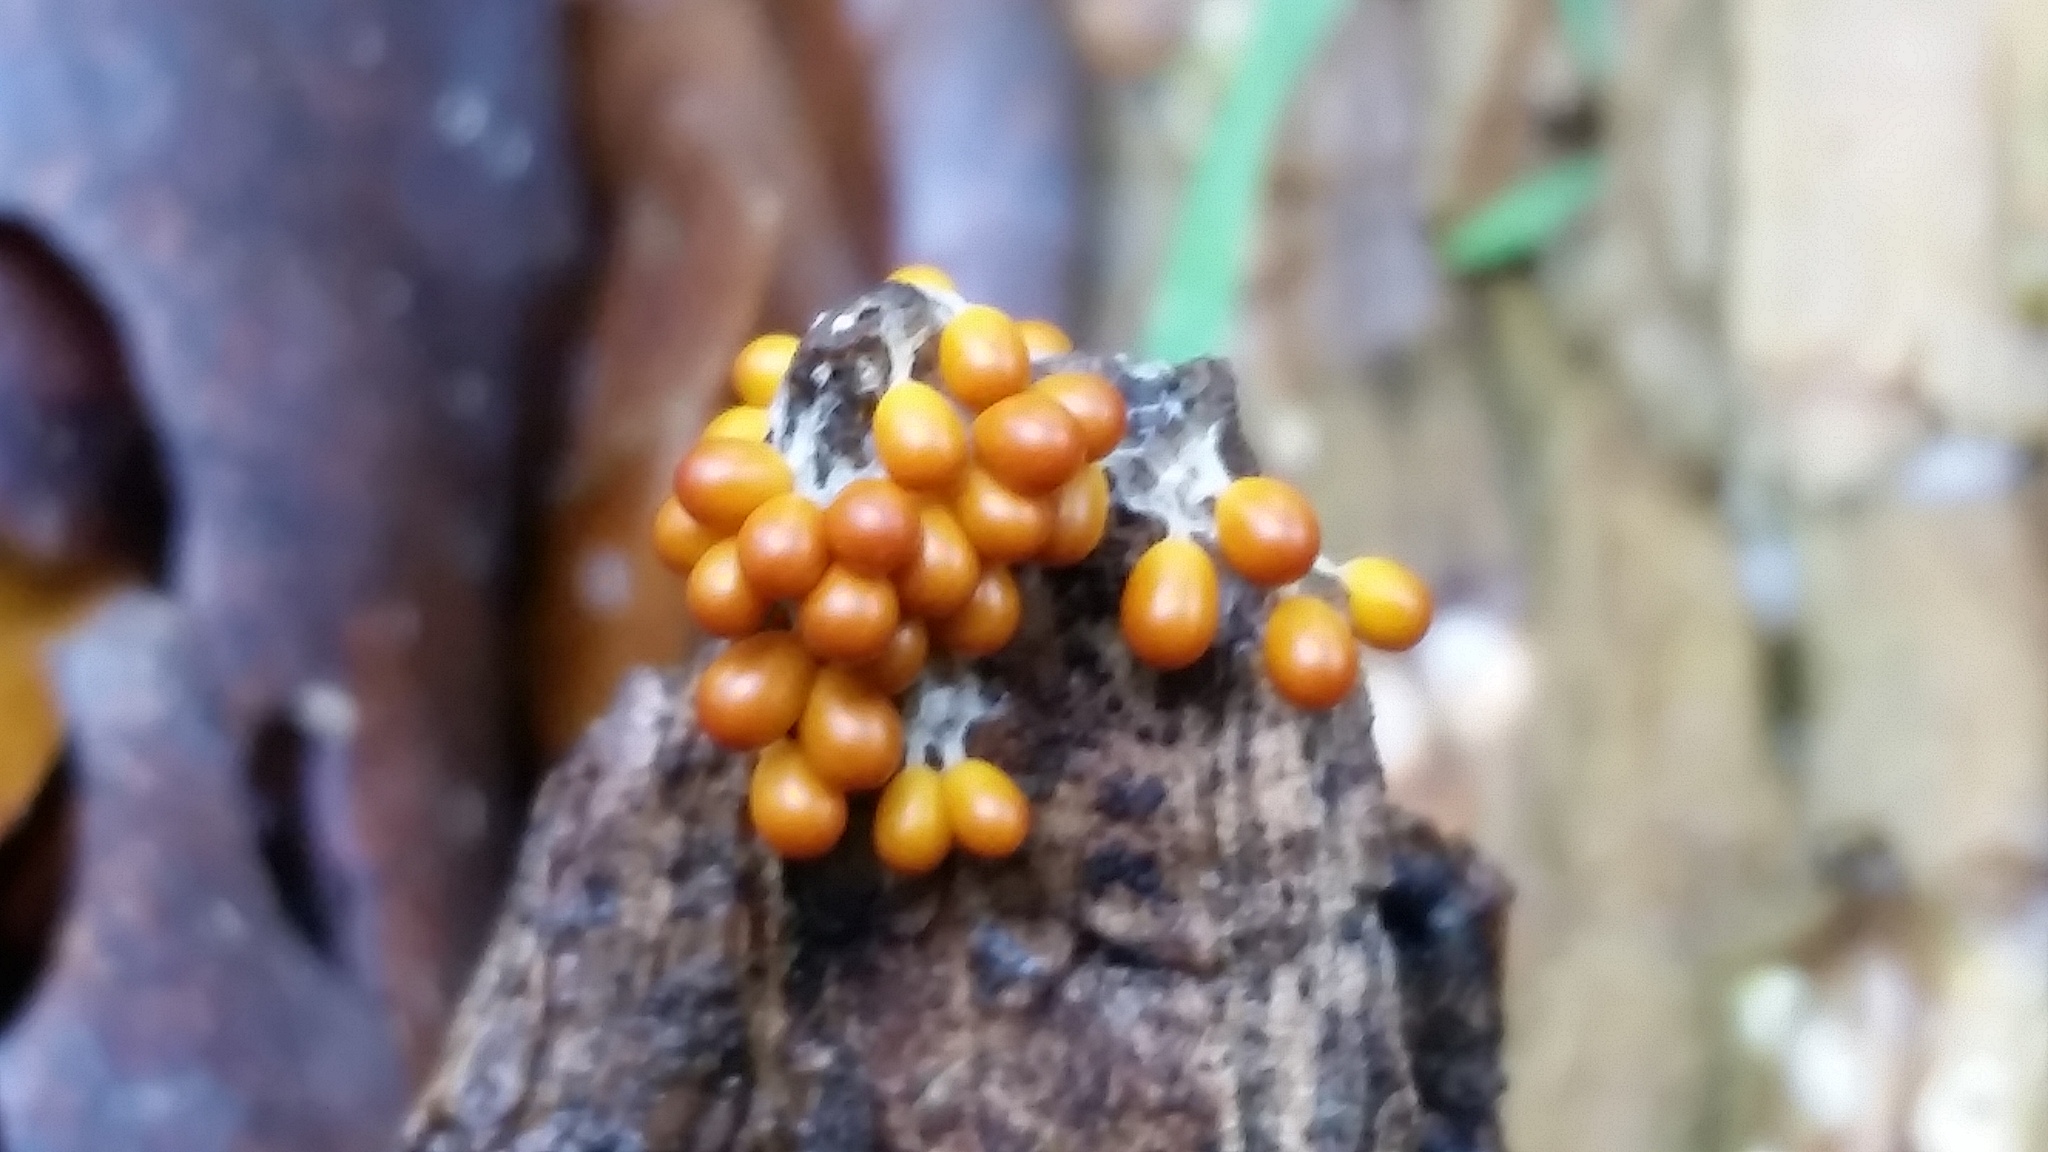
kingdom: Protozoa
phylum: Mycetozoa
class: Myxomycetes
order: Physarales
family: Physaraceae
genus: Leocarpus
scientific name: Leocarpus fragilis
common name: Insect-egg slime
